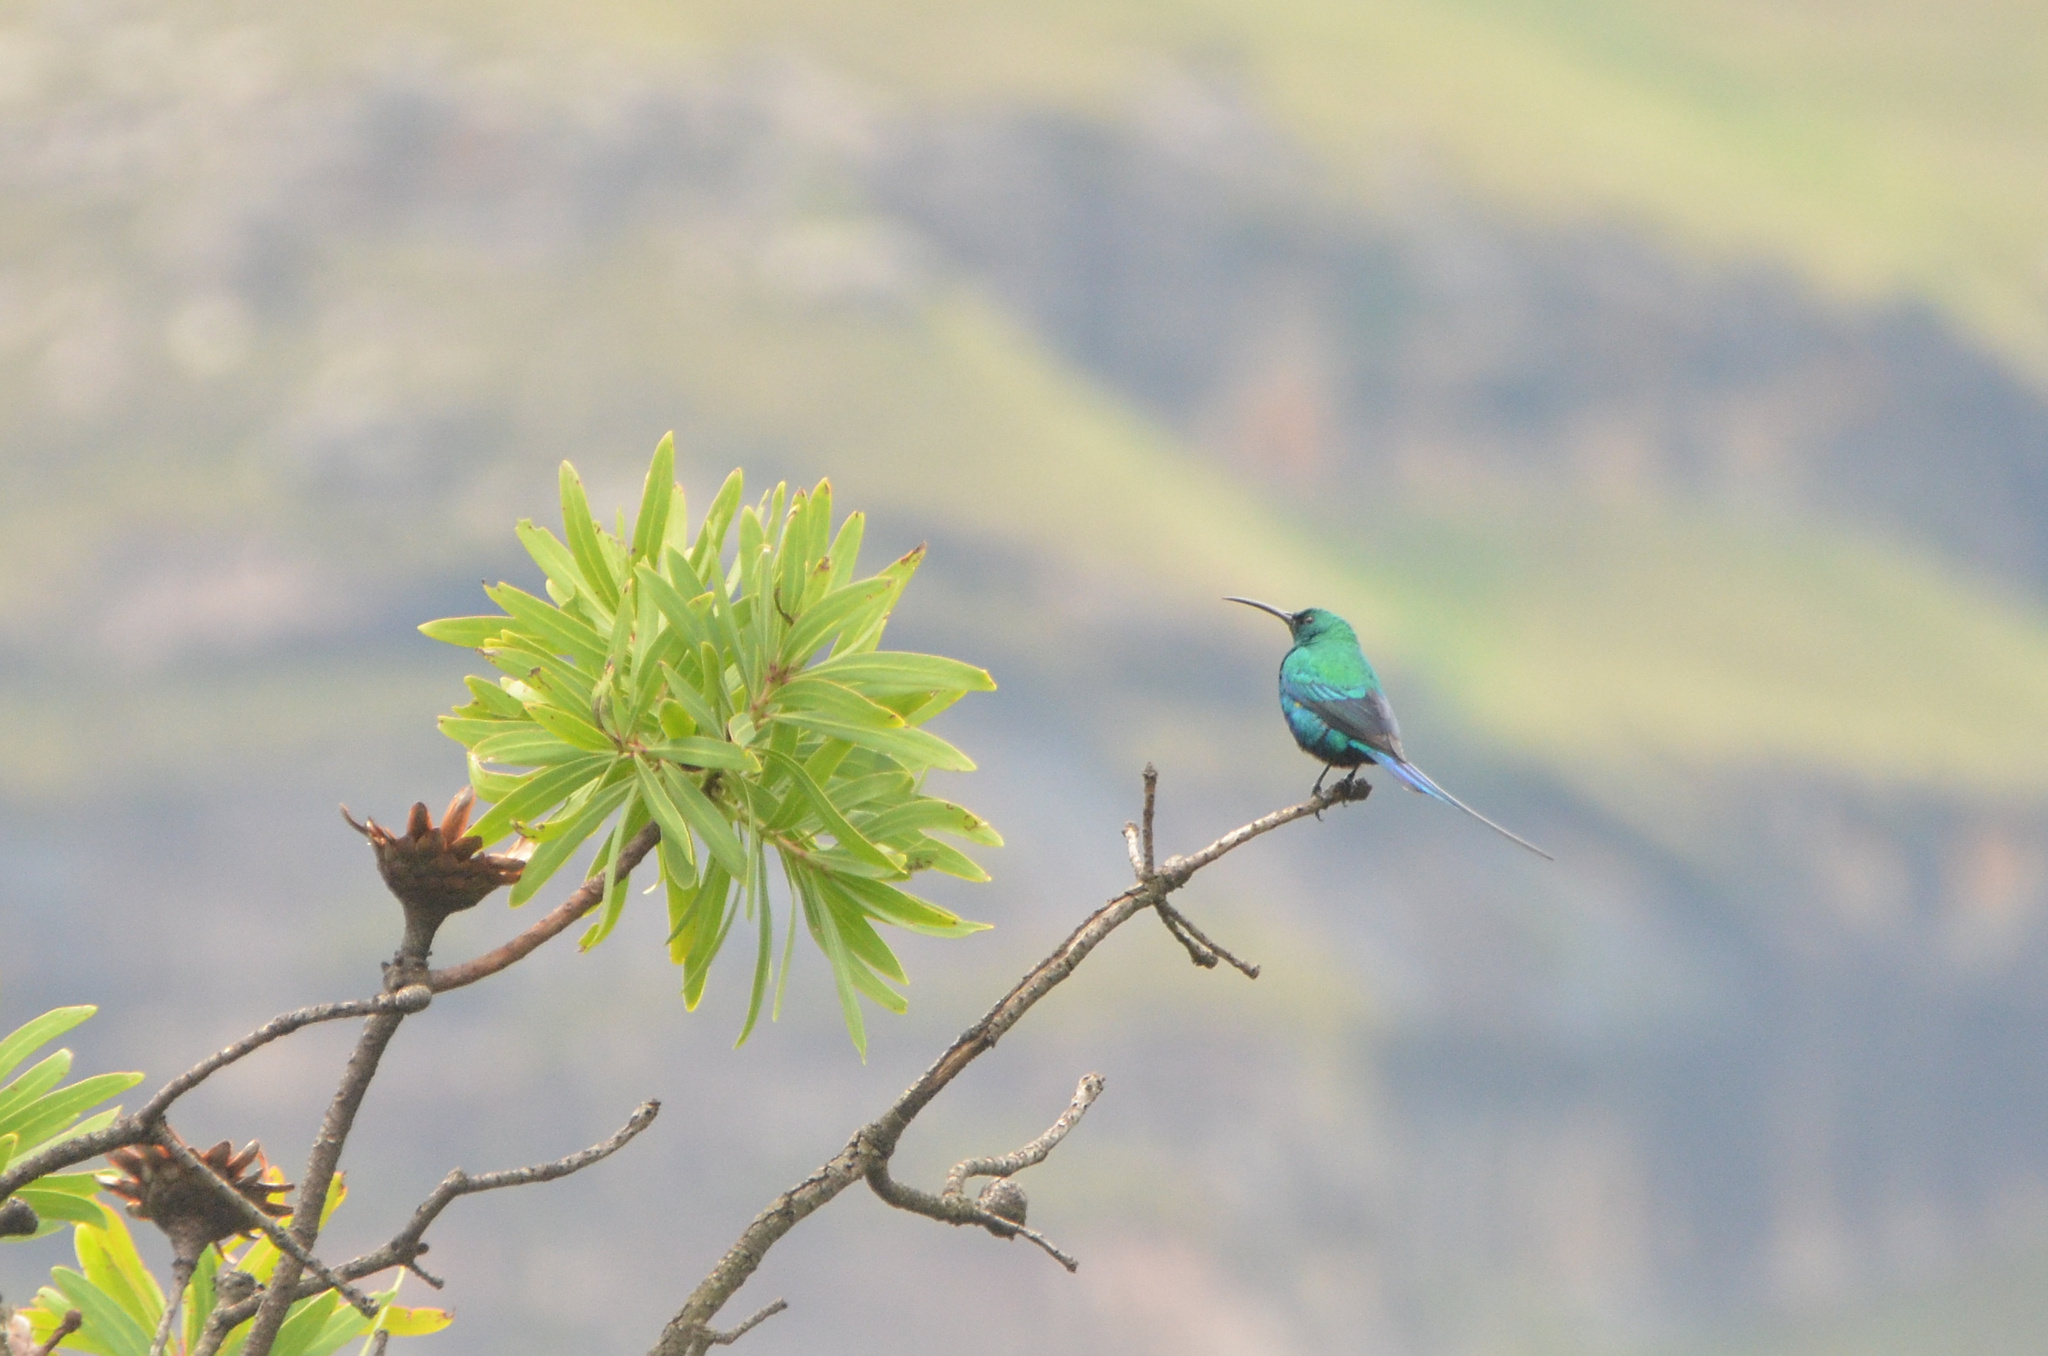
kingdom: Animalia
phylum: Chordata
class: Aves
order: Passeriformes
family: Nectariniidae
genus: Nectarinia
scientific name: Nectarinia famosa
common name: Malachite sunbird
